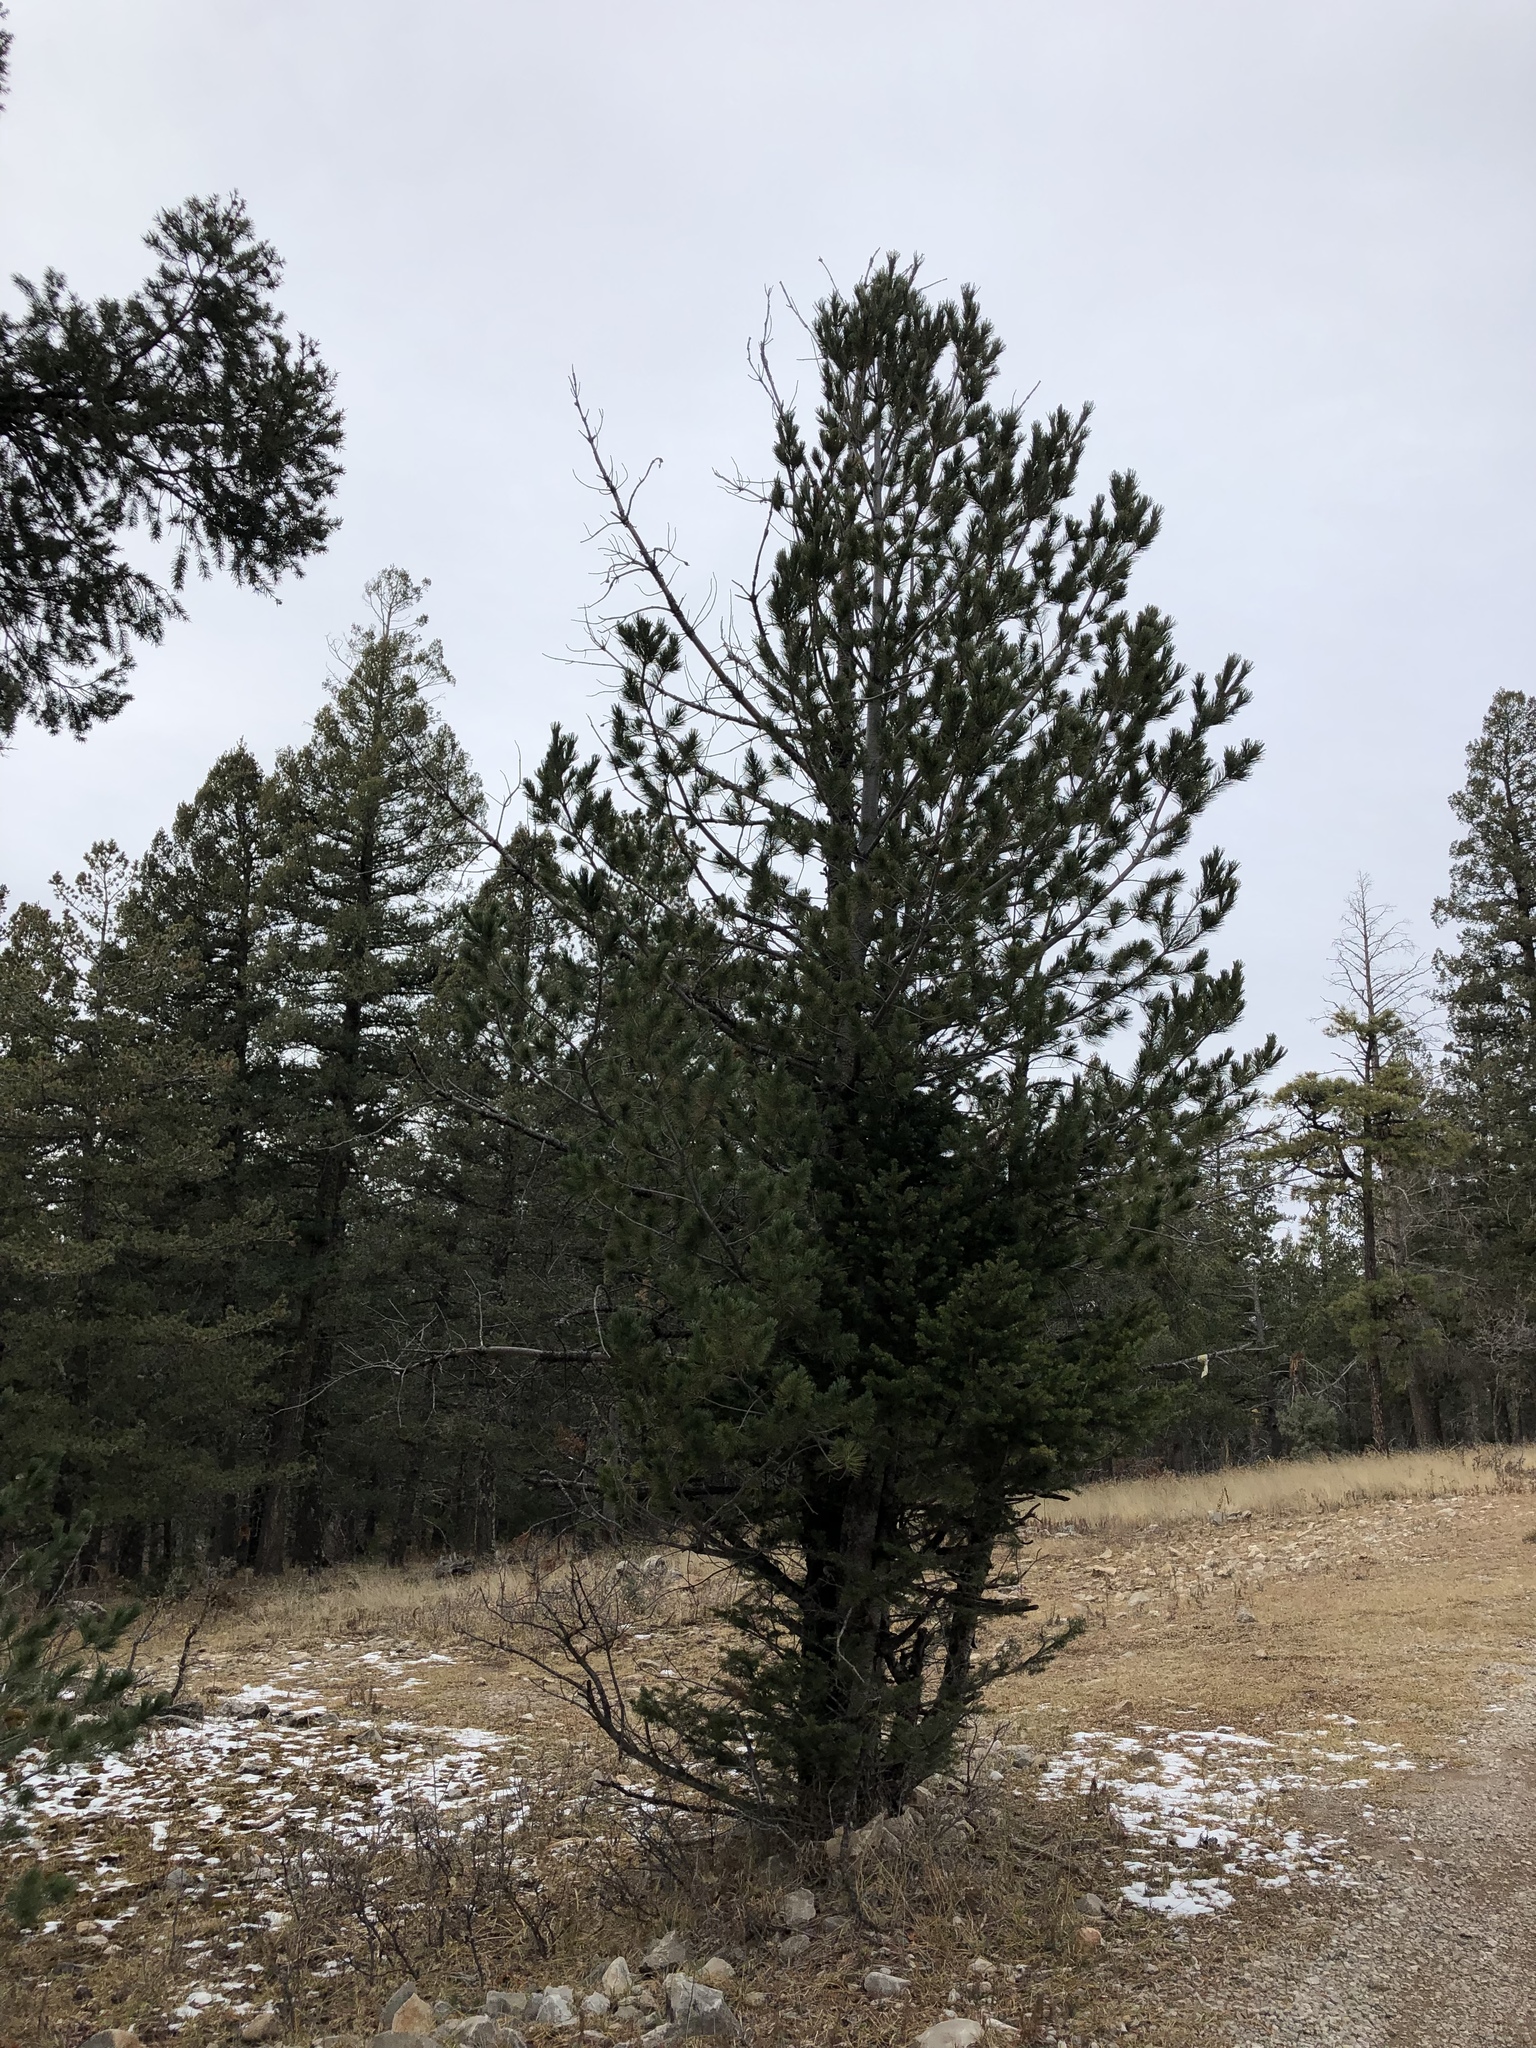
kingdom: Plantae
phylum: Tracheophyta
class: Pinopsida
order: Pinales
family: Pinaceae
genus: Pinus
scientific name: Pinus edulis
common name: Colorado pinyon
